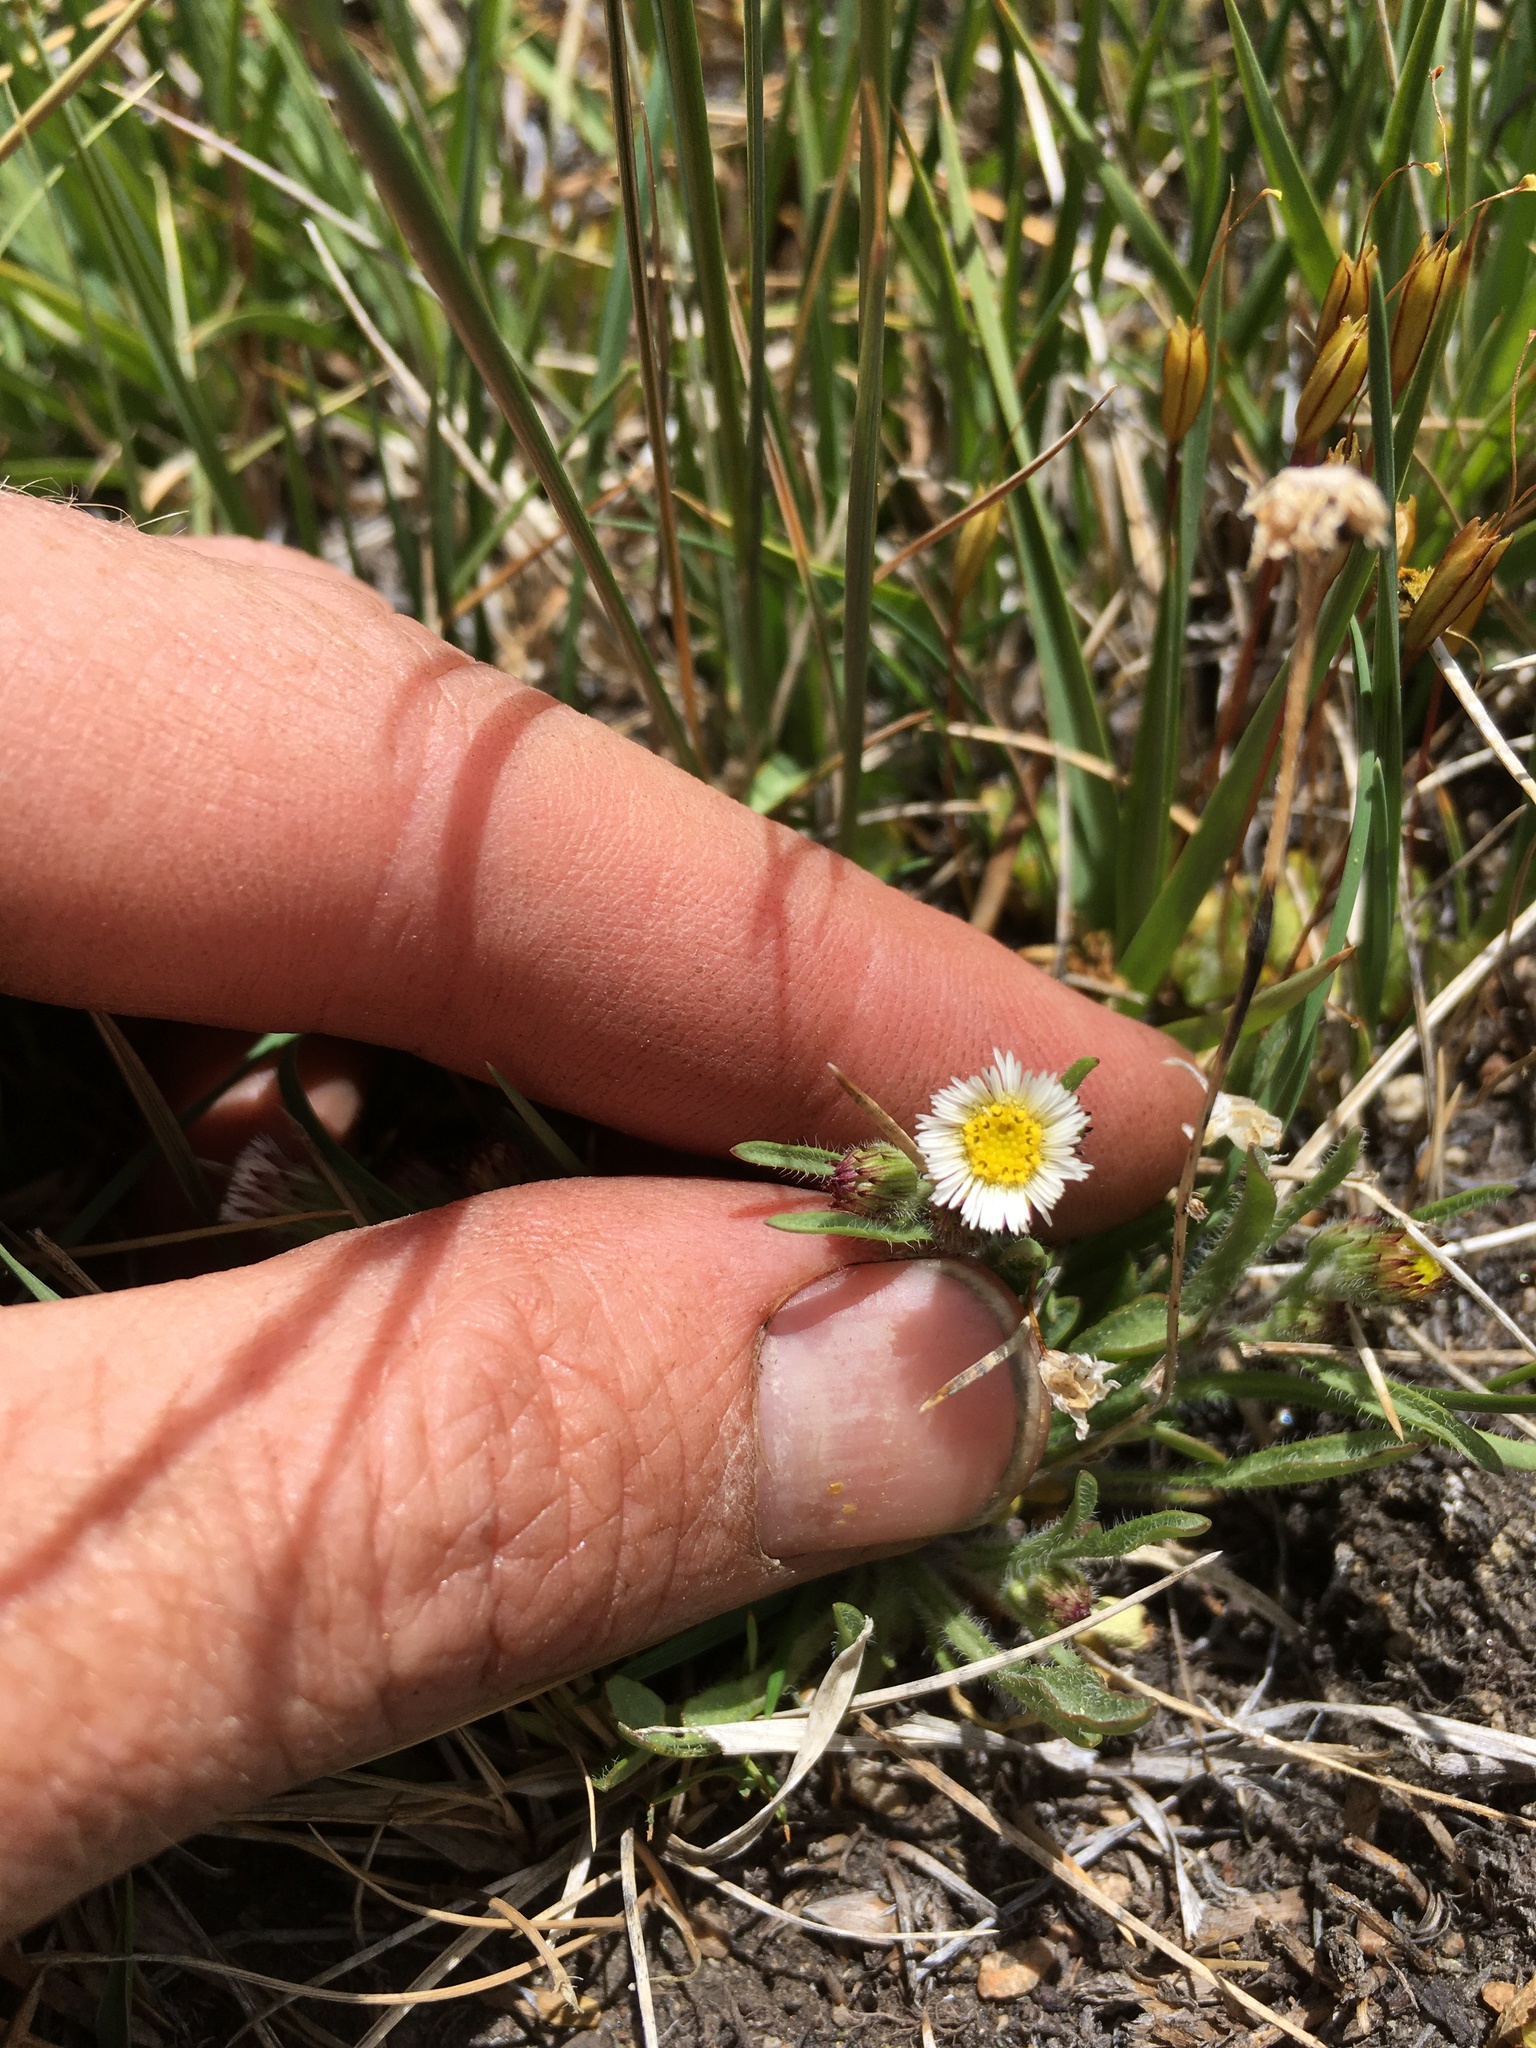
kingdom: Plantae
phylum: Tracheophyta
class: Magnoliopsida
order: Asterales
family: Asteraceae
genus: Erigeron
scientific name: Erigeron lonchophyllus
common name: Short-ray fleabane
